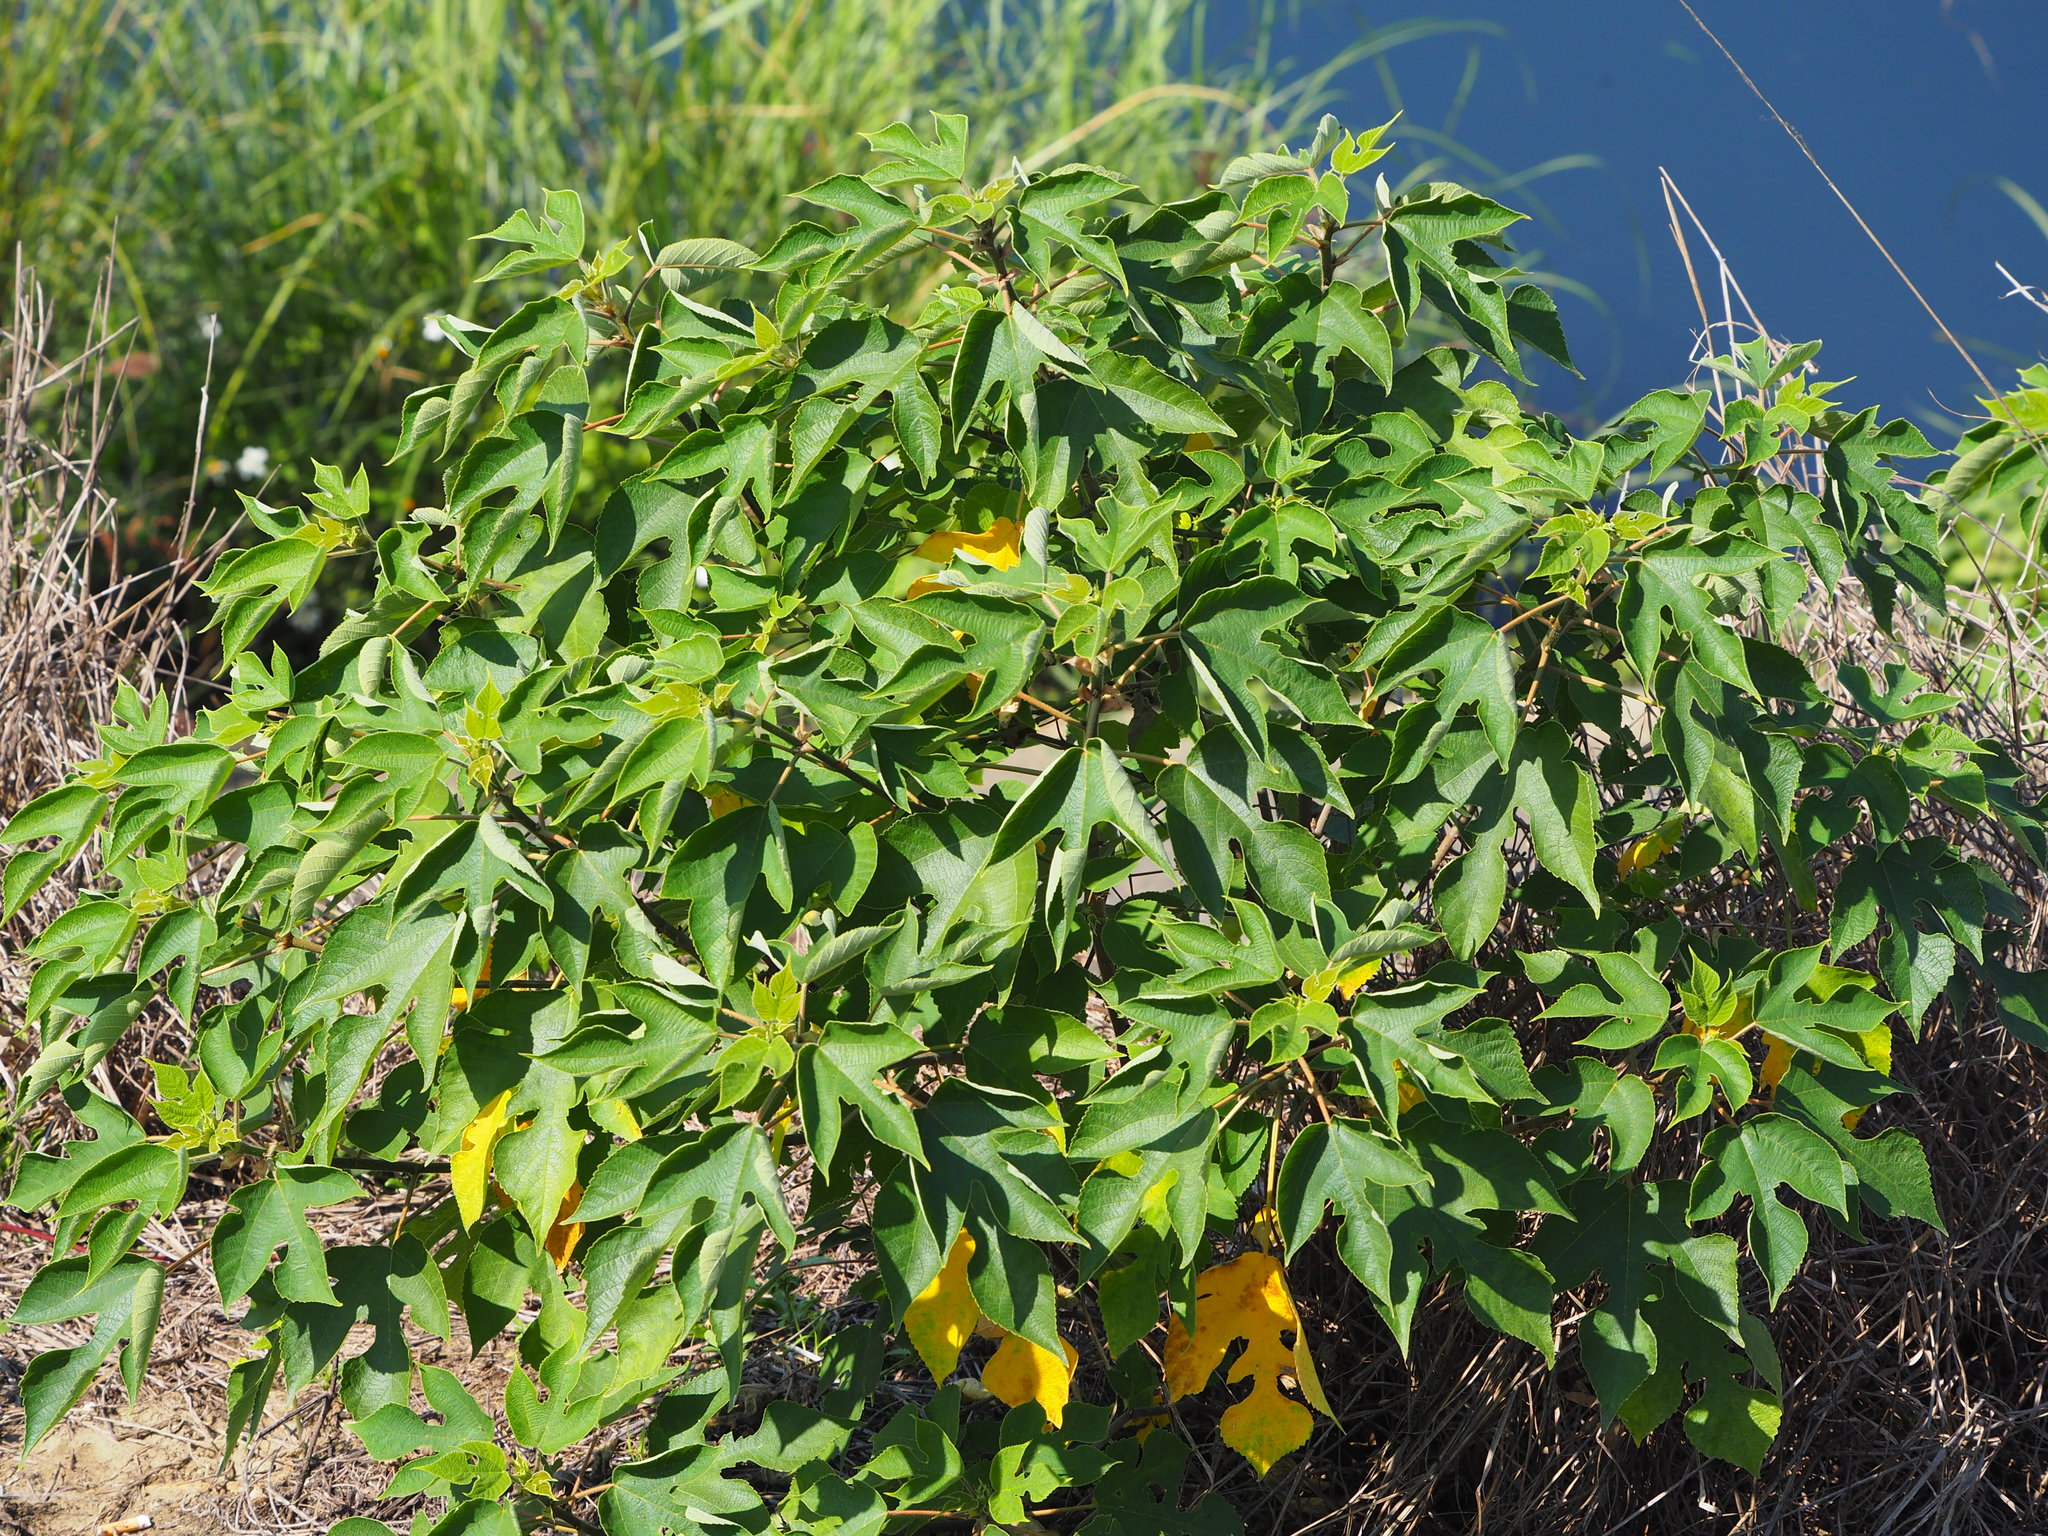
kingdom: Plantae
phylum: Tracheophyta
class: Magnoliopsida
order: Rosales
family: Moraceae
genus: Broussonetia
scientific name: Broussonetia papyrifera
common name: Paper mulberry
